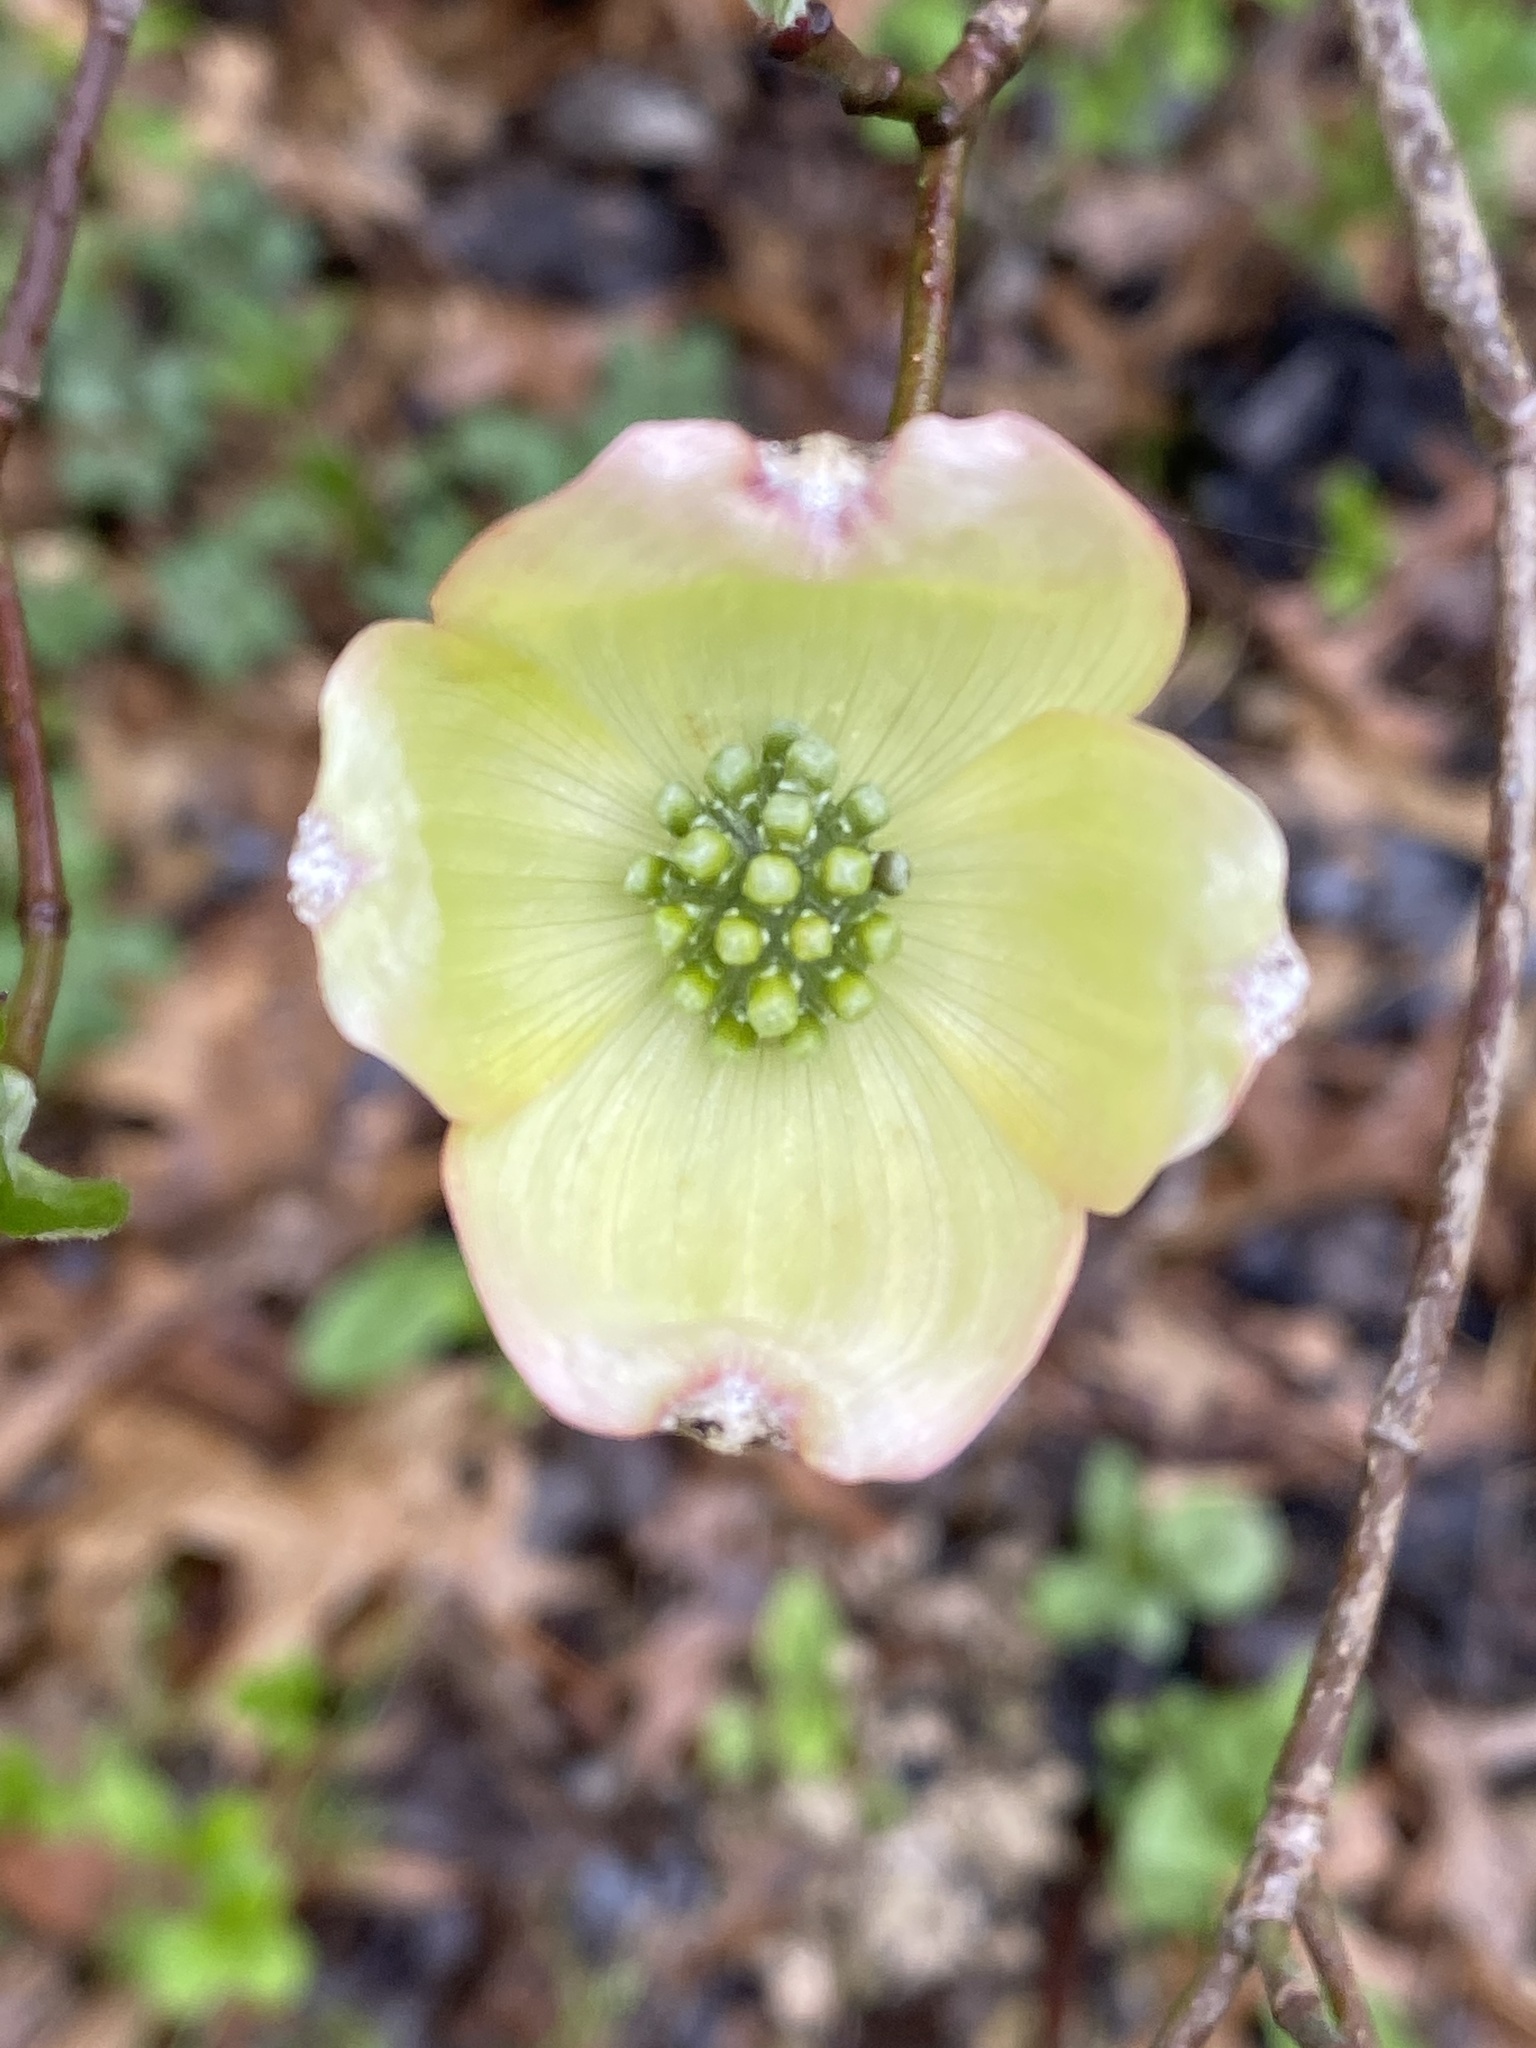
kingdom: Plantae
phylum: Tracheophyta
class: Magnoliopsida
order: Cornales
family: Cornaceae
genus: Cornus
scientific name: Cornus florida
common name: Flowering dogwood
